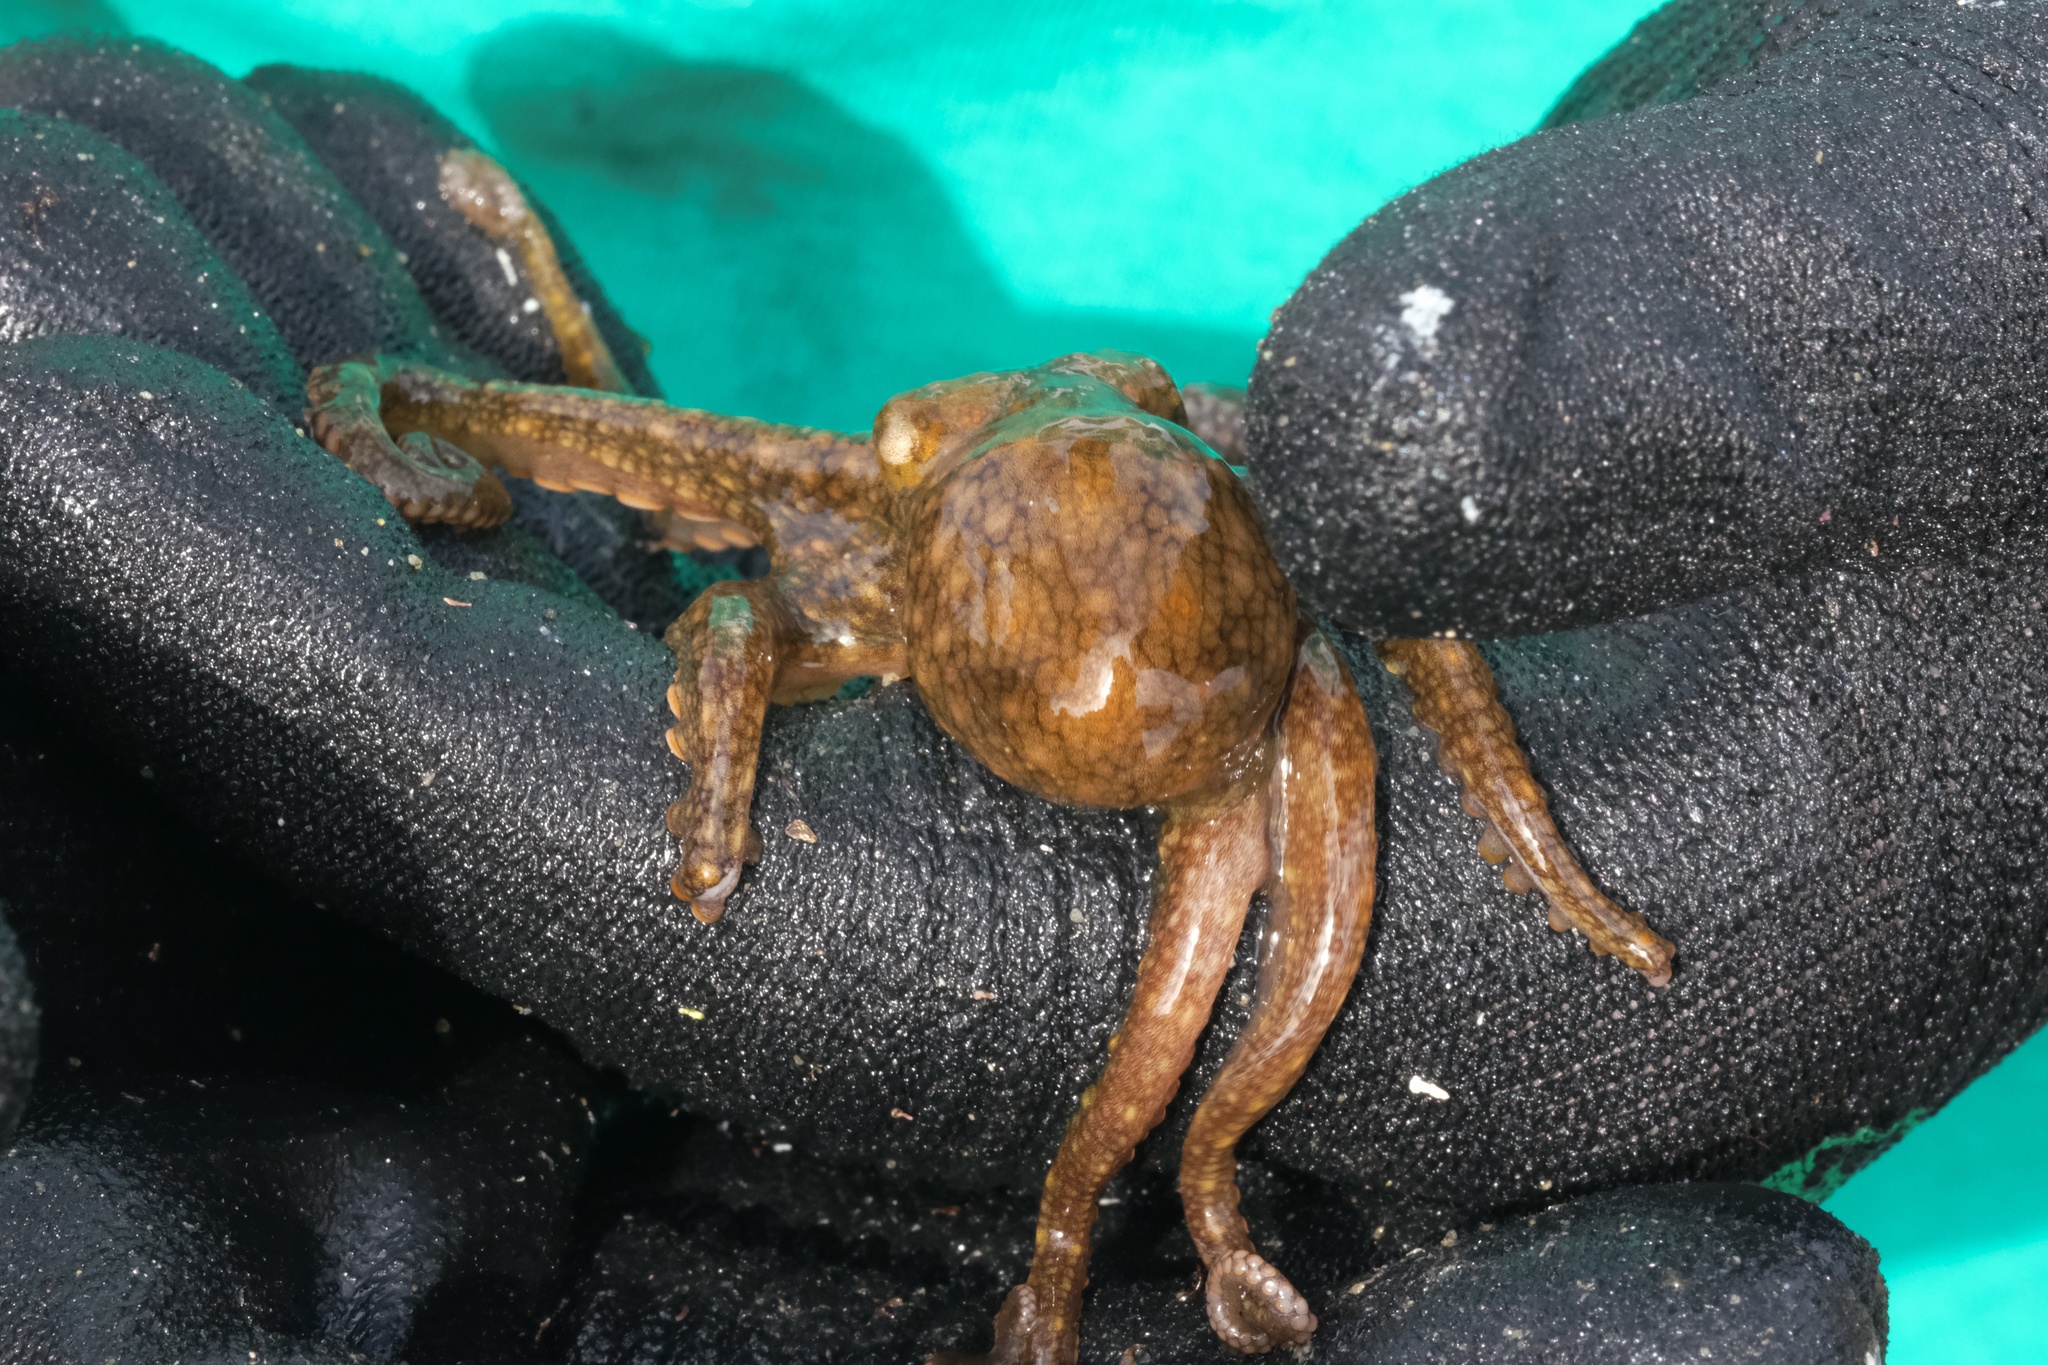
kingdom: Animalia
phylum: Mollusca
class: Cephalopoda
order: Octopoda
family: Octopodidae
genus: Octopus
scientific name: Octopus bimaculoides
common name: California two-spot octopus
